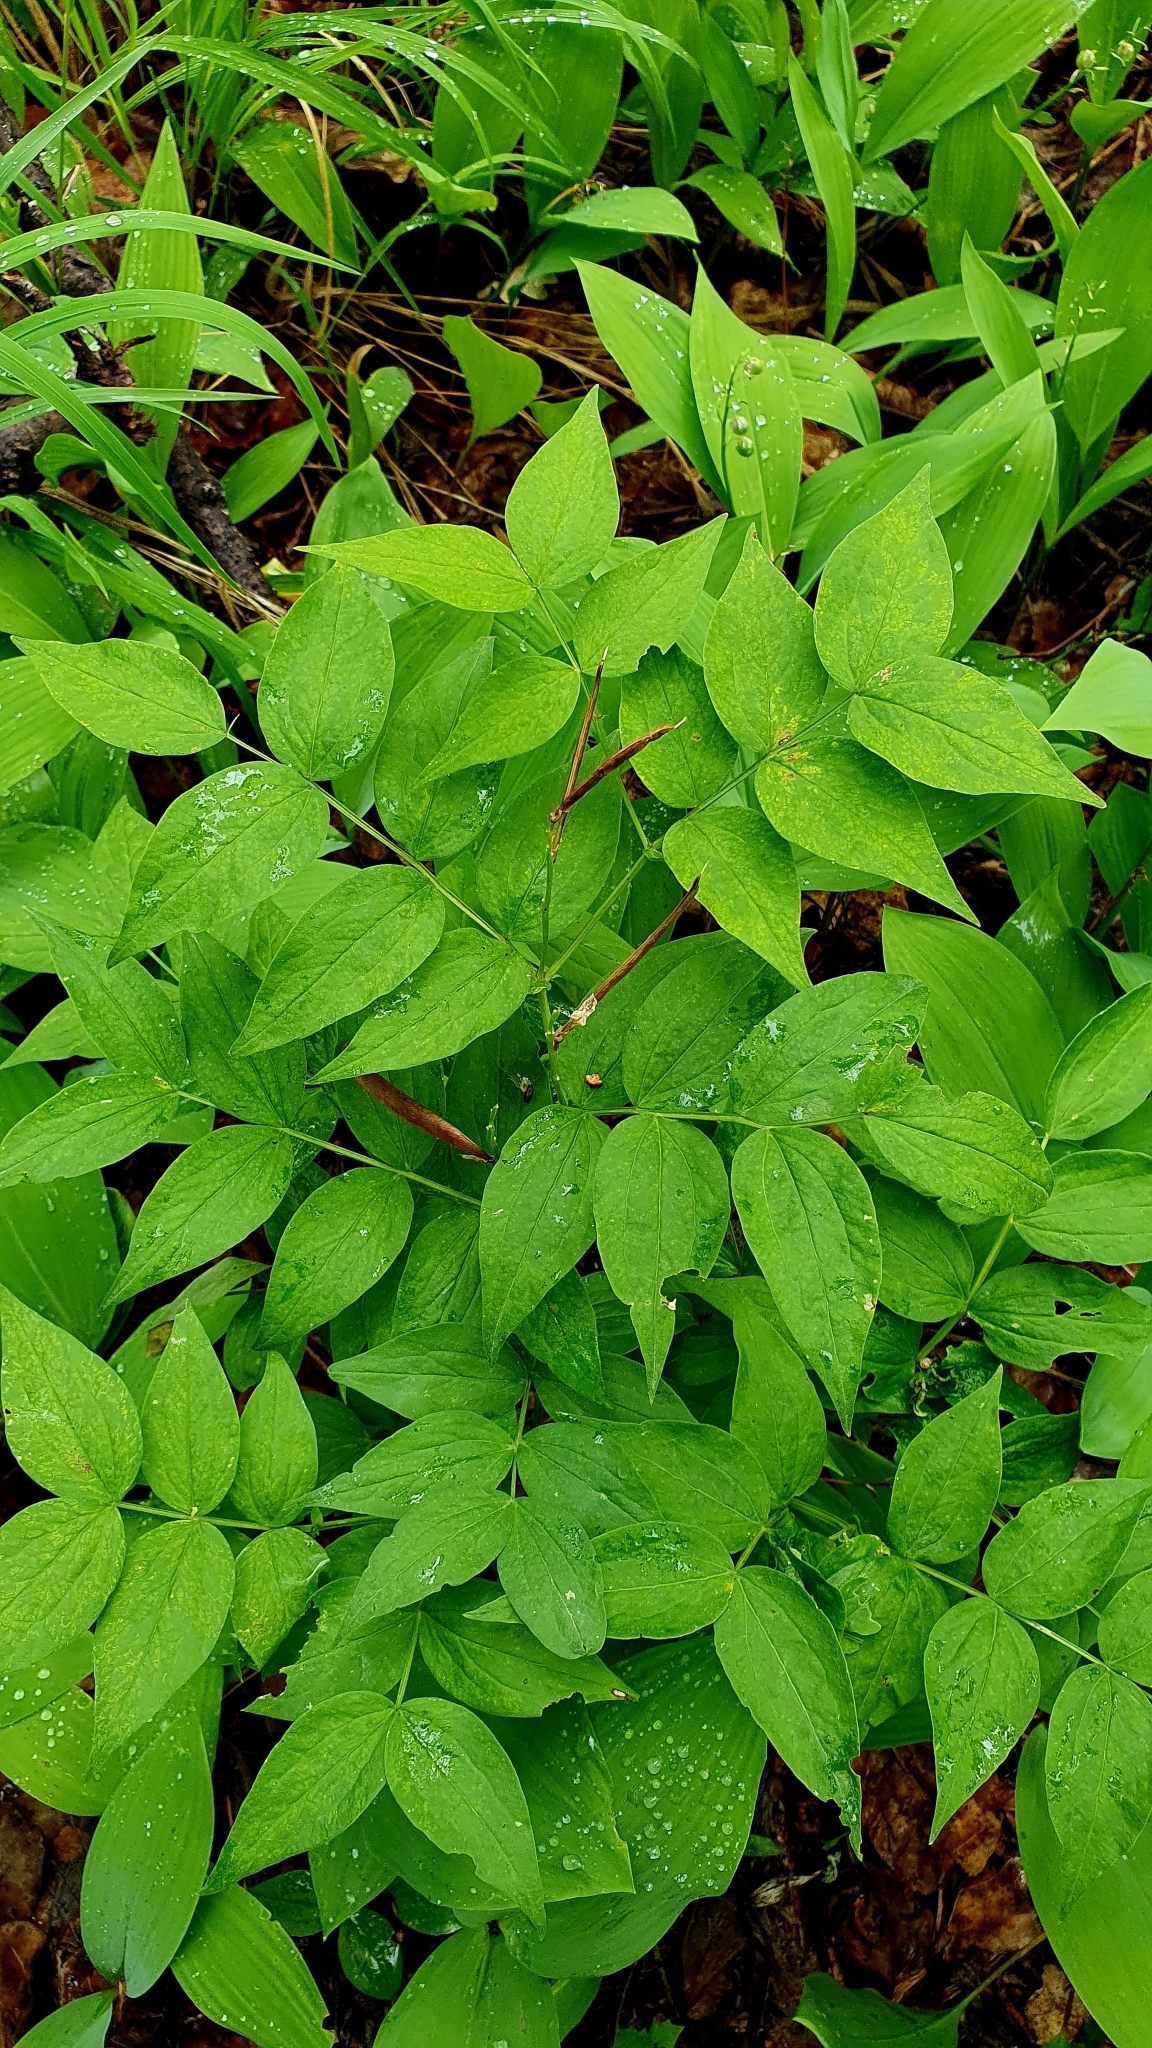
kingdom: Plantae
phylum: Tracheophyta
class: Magnoliopsida
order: Fabales
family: Fabaceae
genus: Lathyrus
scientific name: Lathyrus vernus
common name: Spring pea
